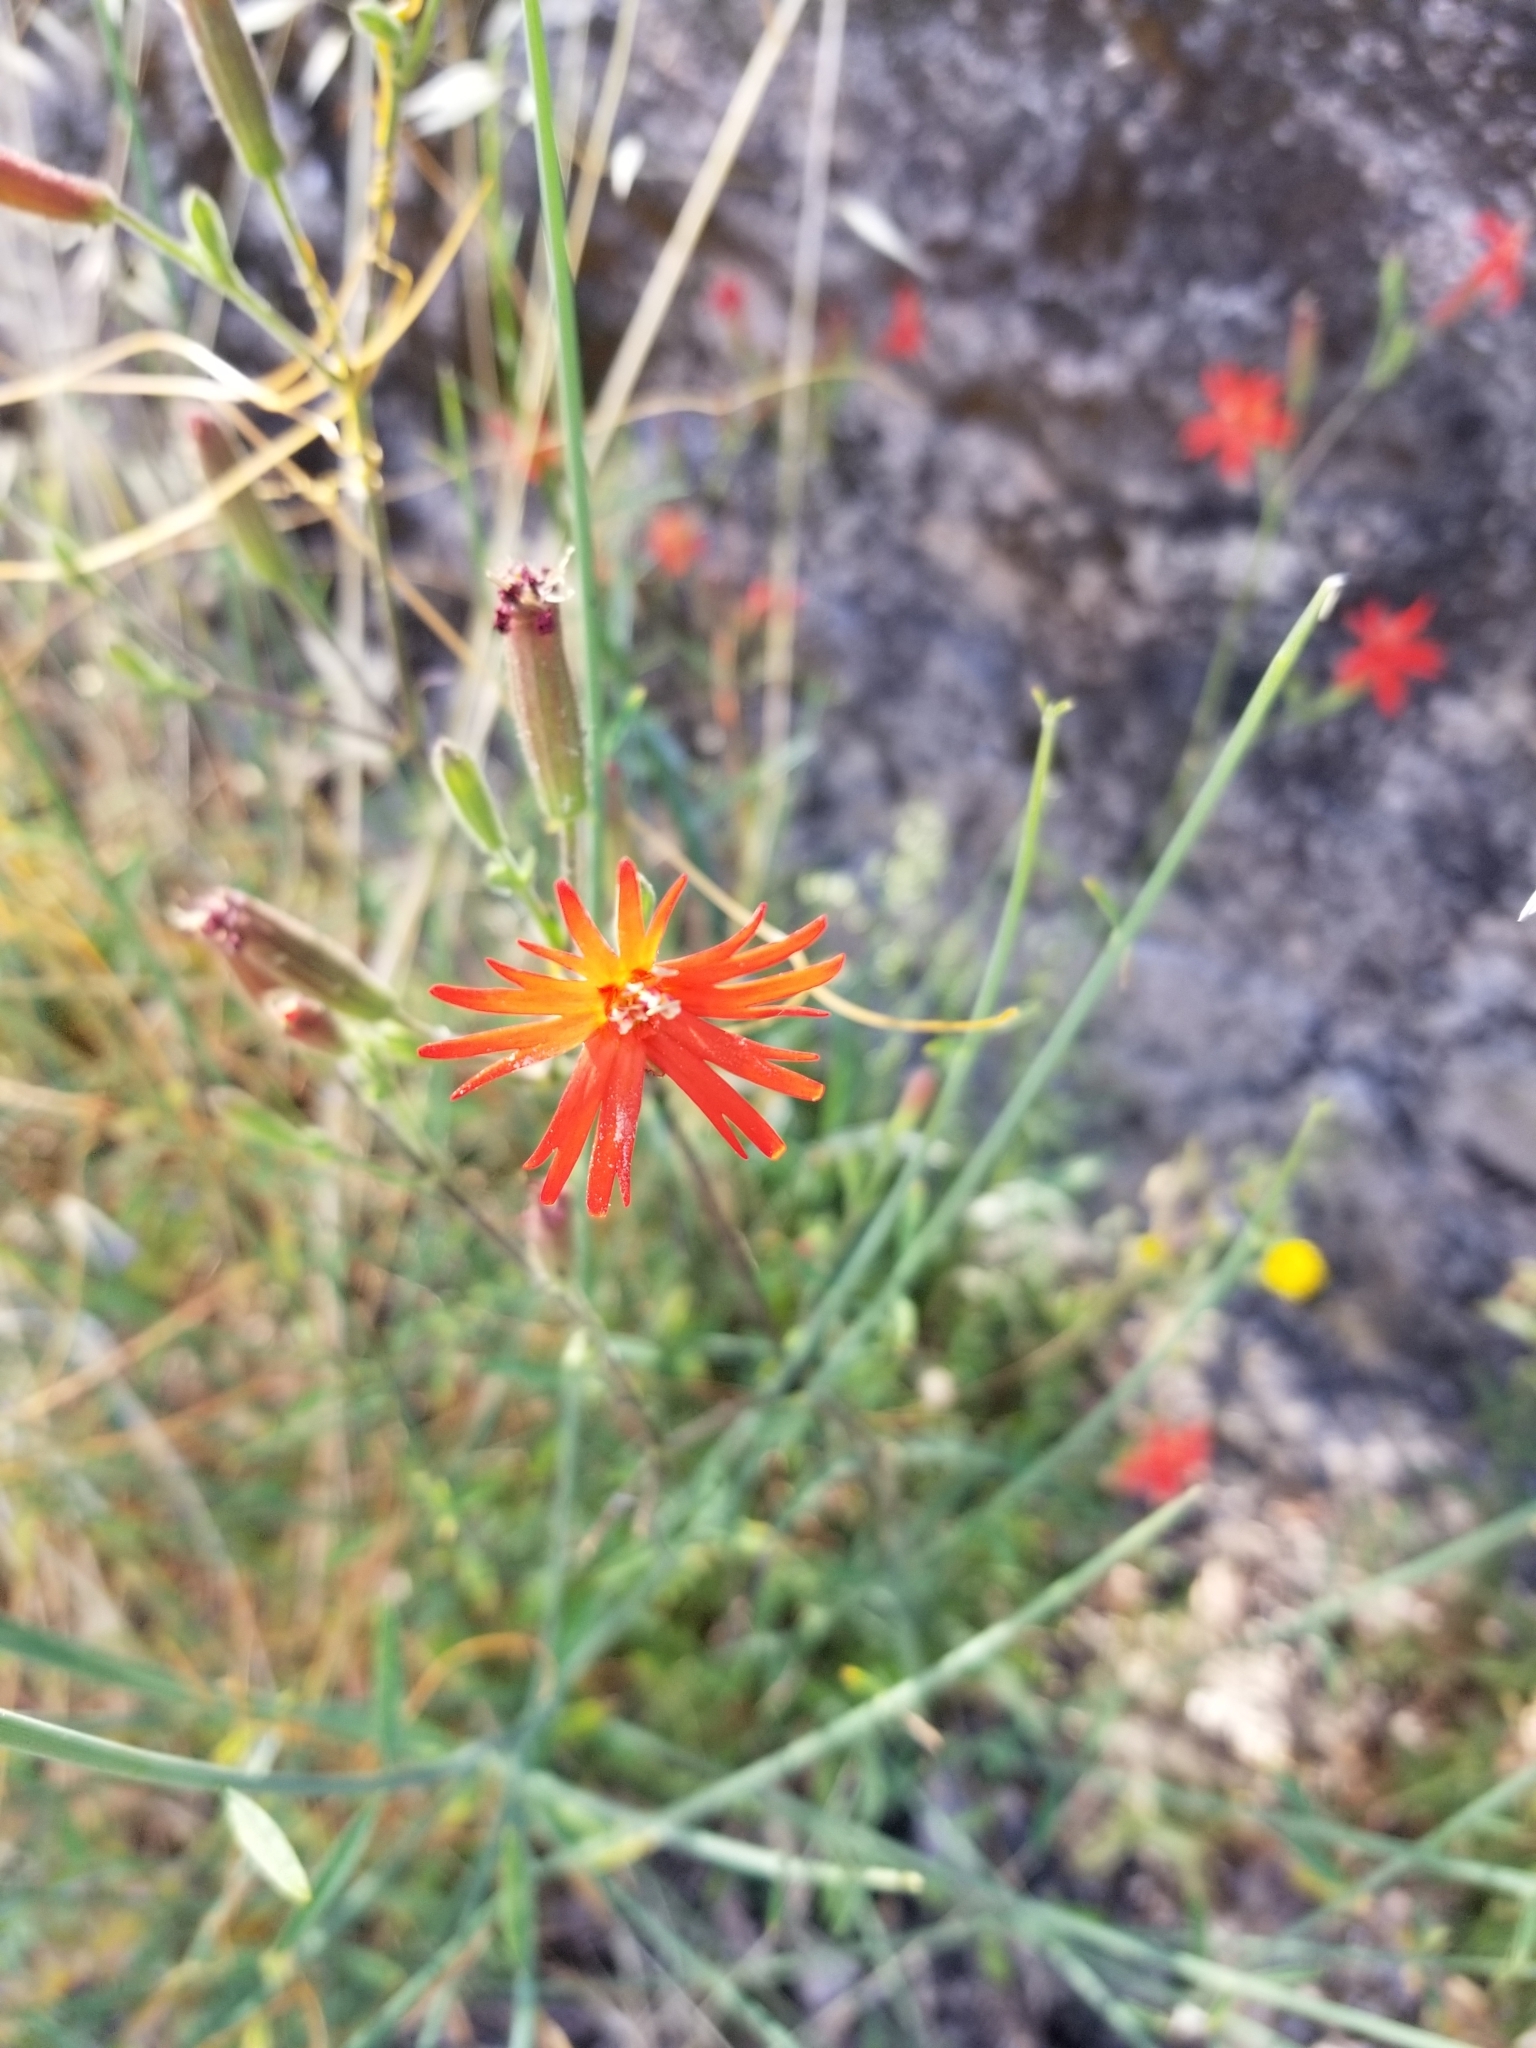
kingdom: Plantae
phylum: Tracheophyta
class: Magnoliopsida
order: Caryophyllales
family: Caryophyllaceae
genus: Silene
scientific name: Silene laciniata
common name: Indian-pink
